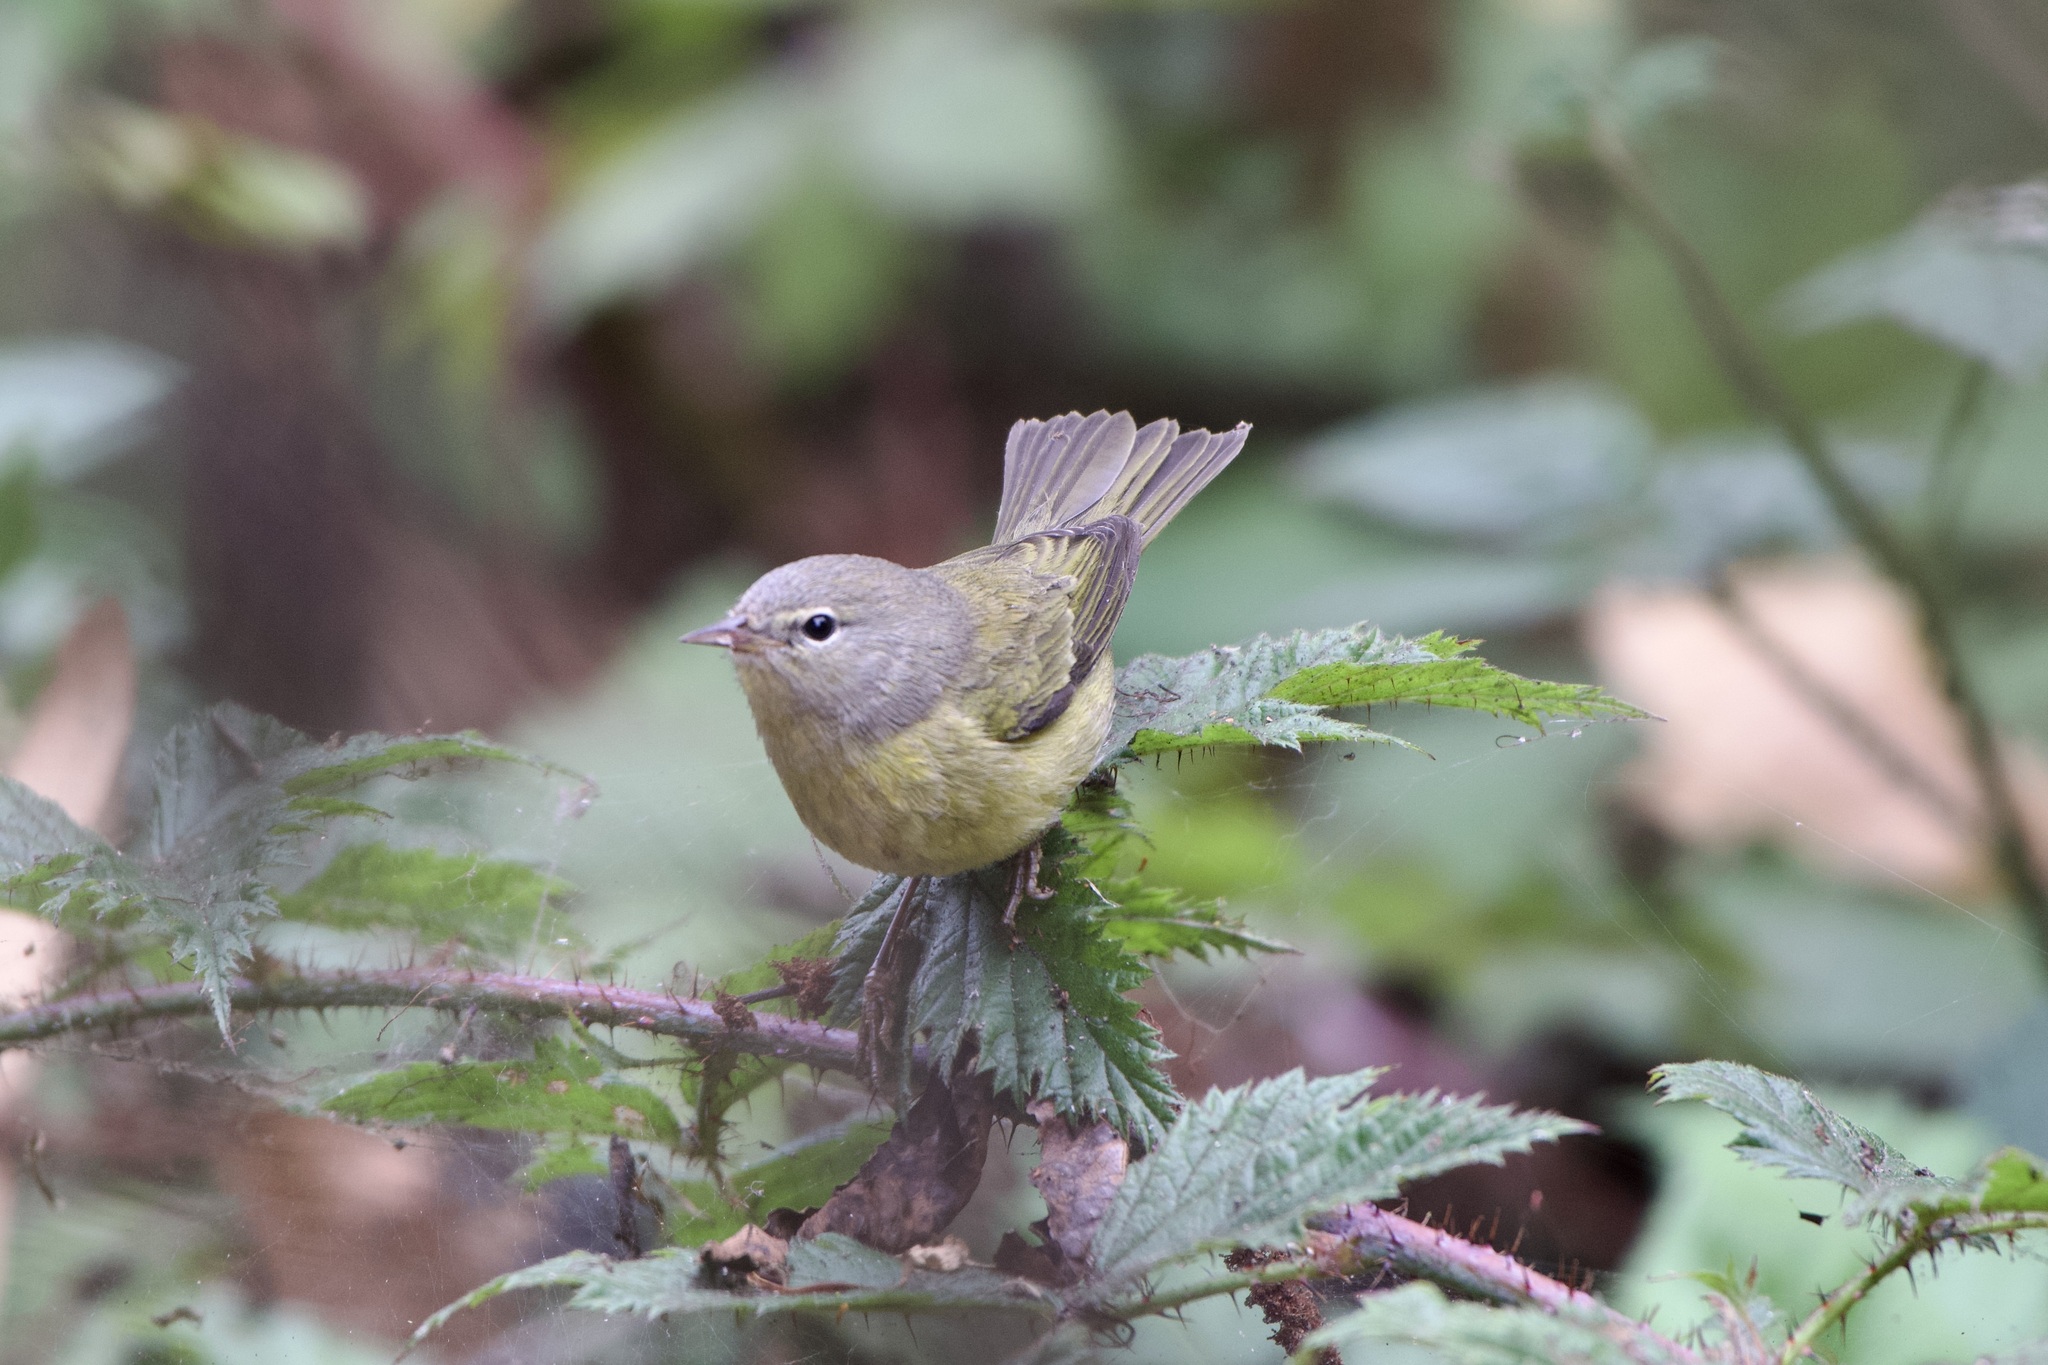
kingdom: Animalia
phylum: Chordata
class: Aves
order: Passeriformes
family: Parulidae
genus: Leiothlypis
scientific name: Leiothlypis celata
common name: Orange-crowned warbler
